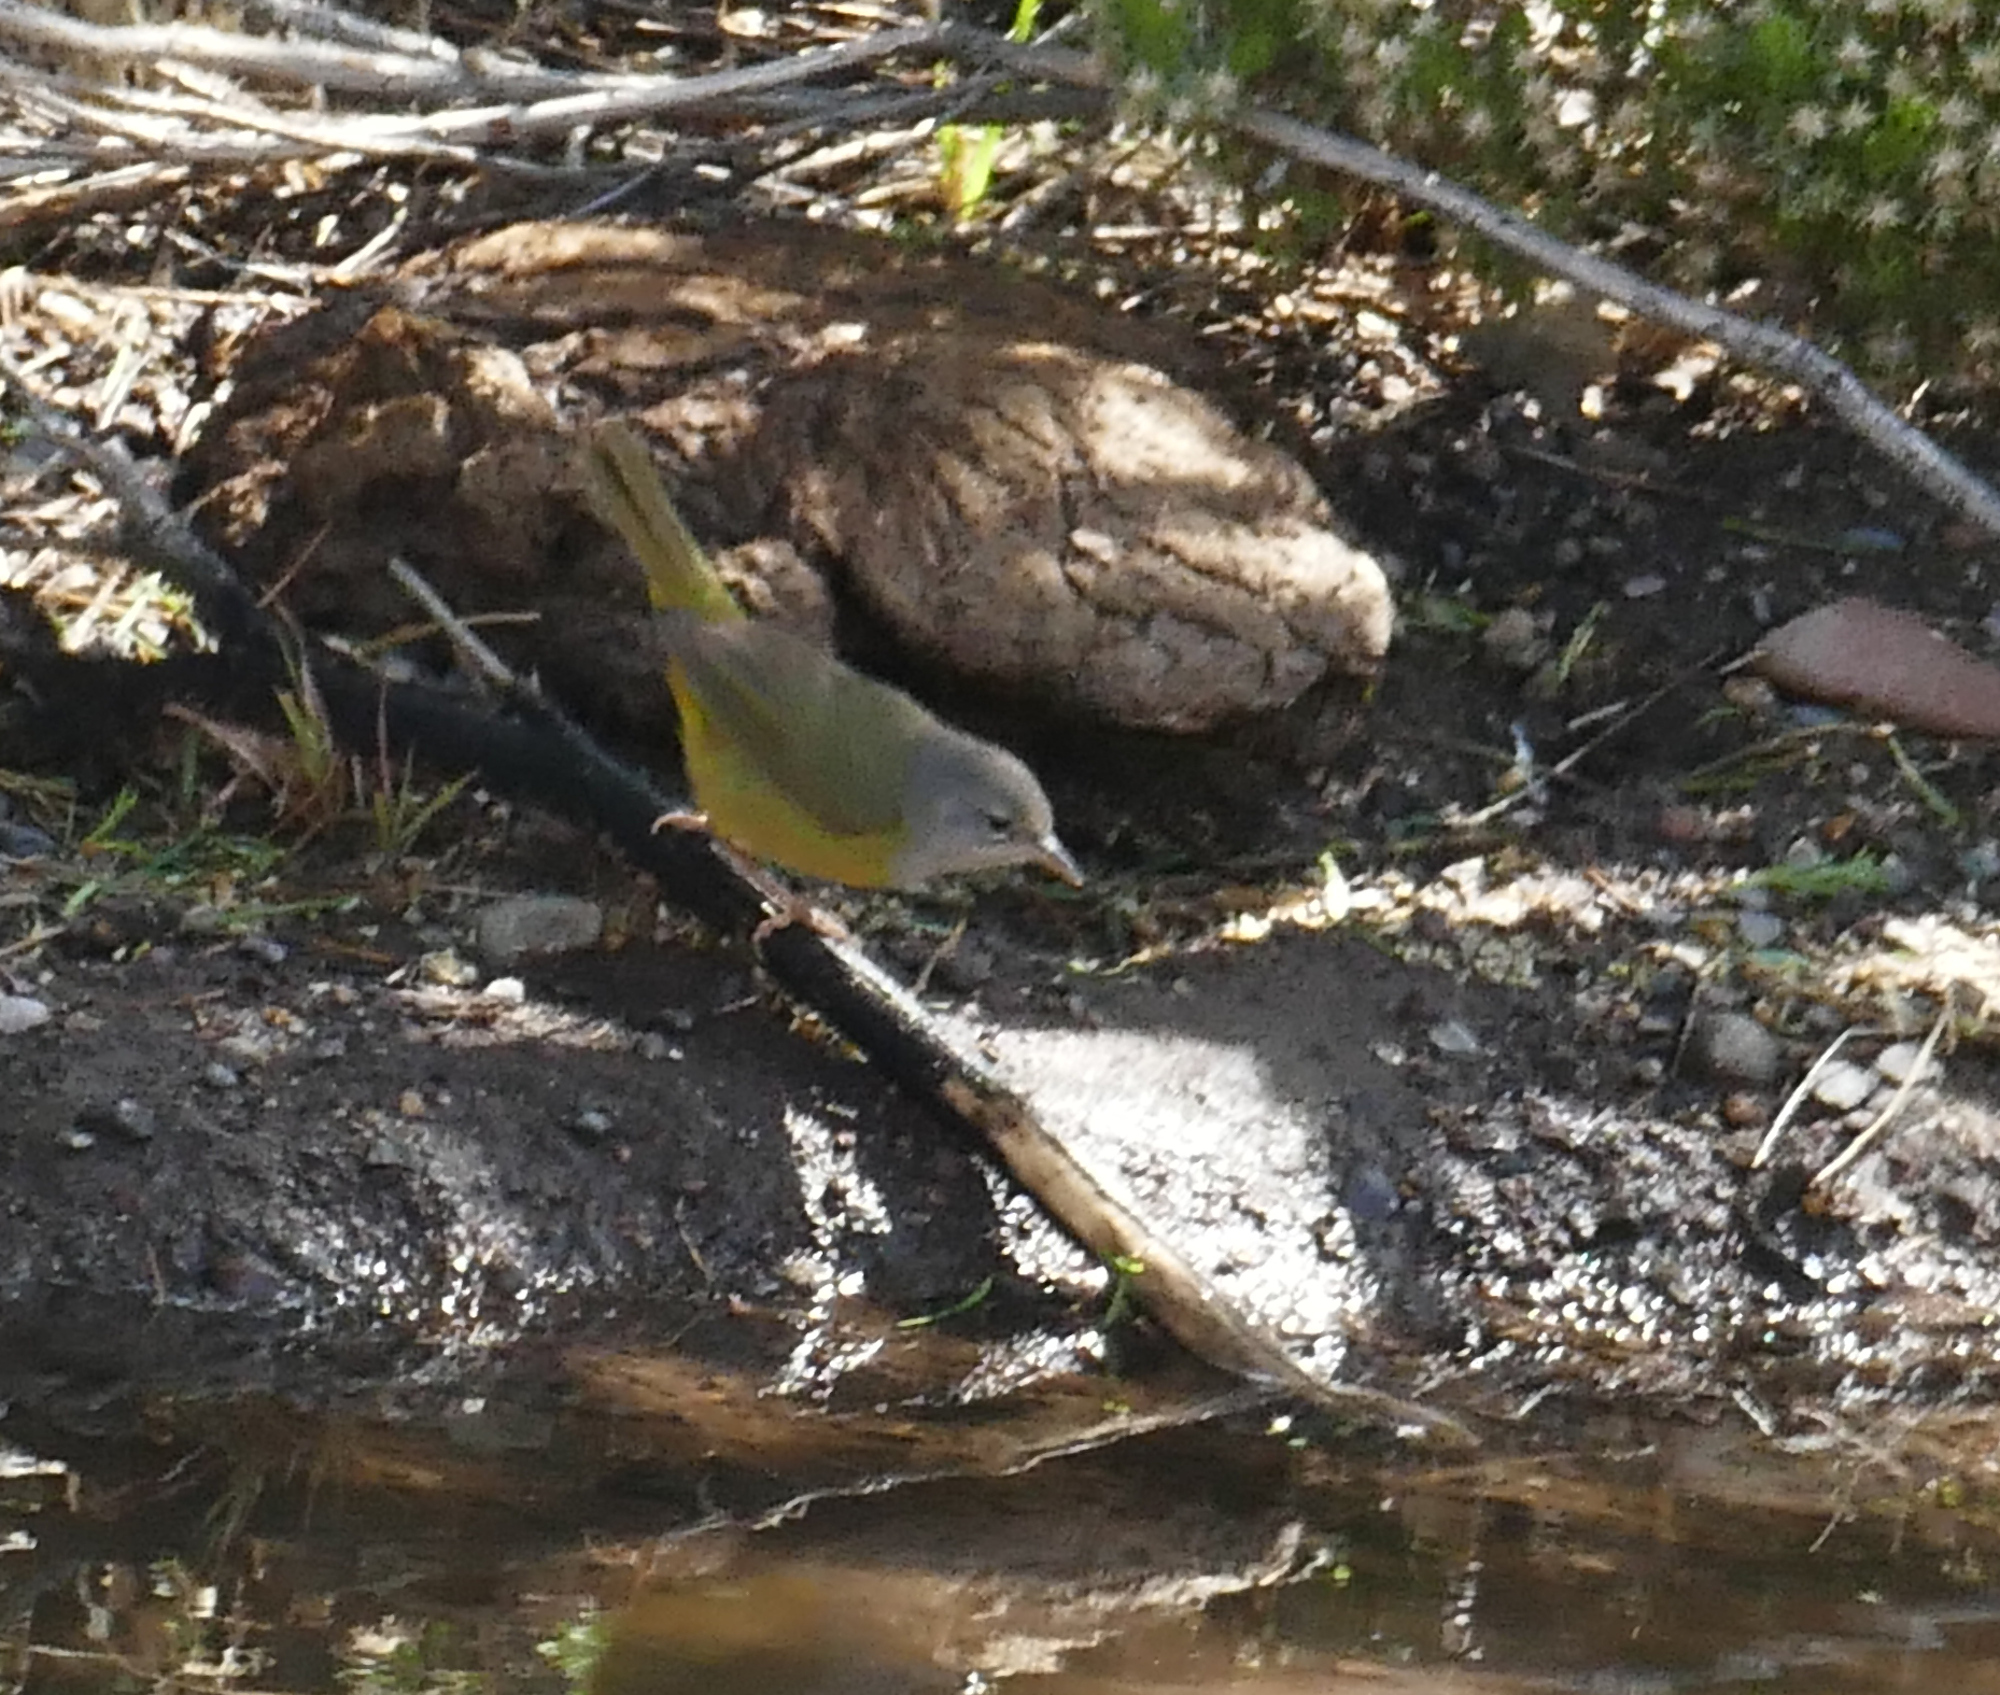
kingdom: Animalia
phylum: Chordata
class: Aves
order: Passeriformes
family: Parulidae
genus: Geothlypis
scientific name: Geothlypis tolmiei
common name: Macgillivray's warbler
